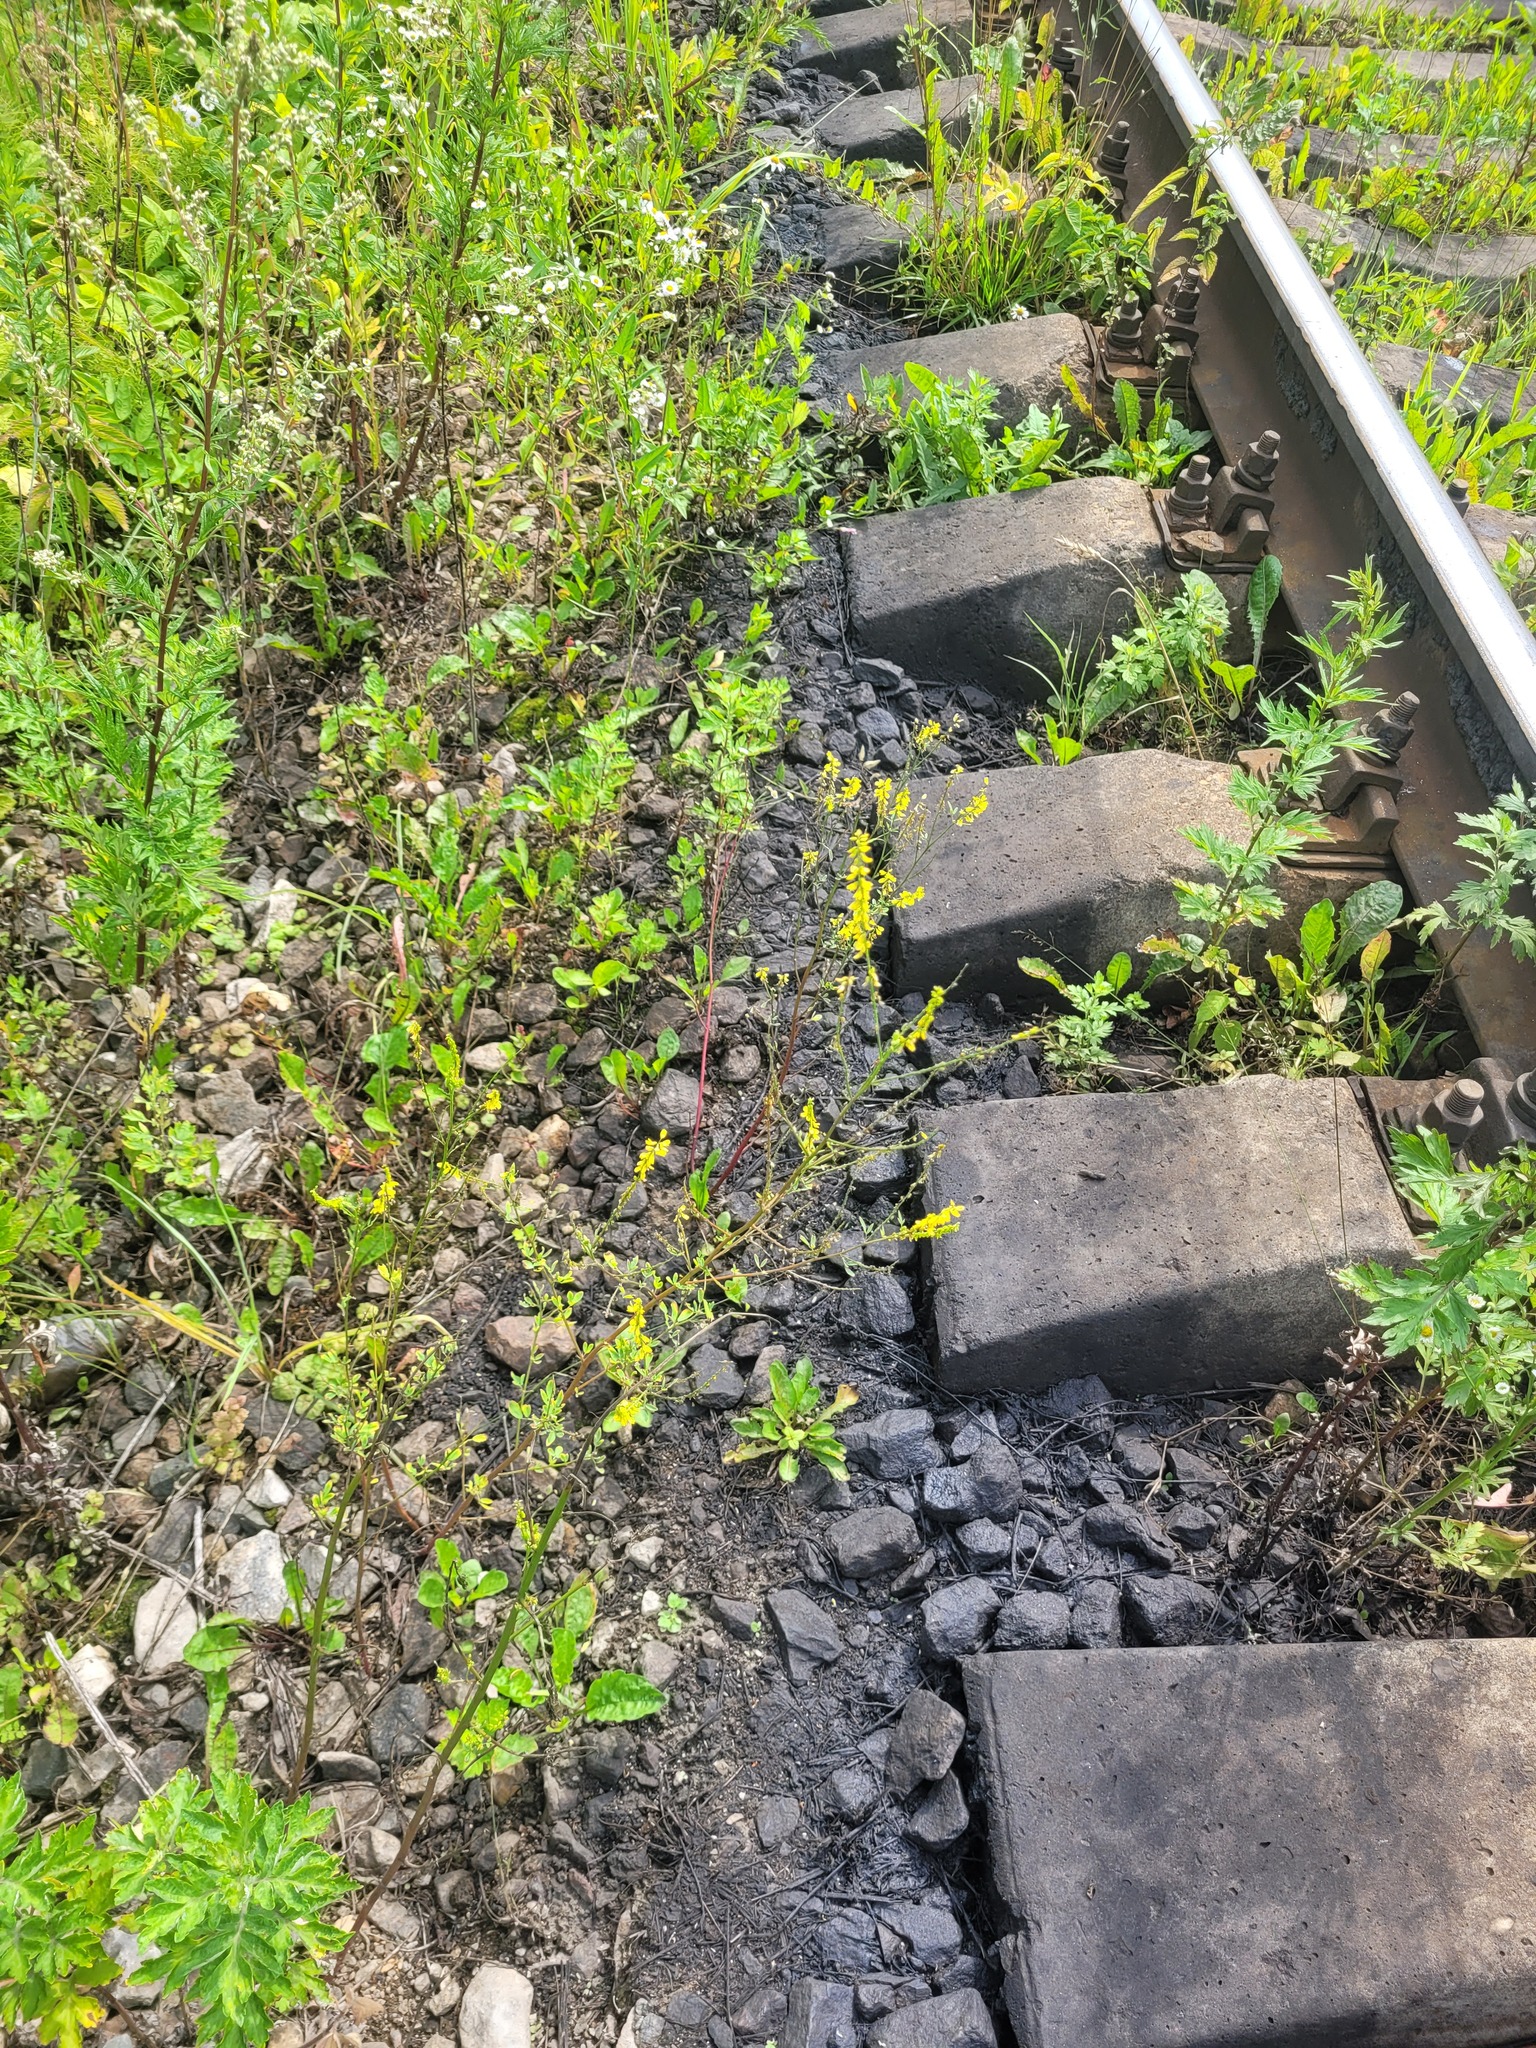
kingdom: Plantae
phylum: Tracheophyta
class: Magnoliopsida
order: Fabales
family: Fabaceae
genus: Melilotus
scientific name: Melilotus officinalis
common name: Sweetclover
